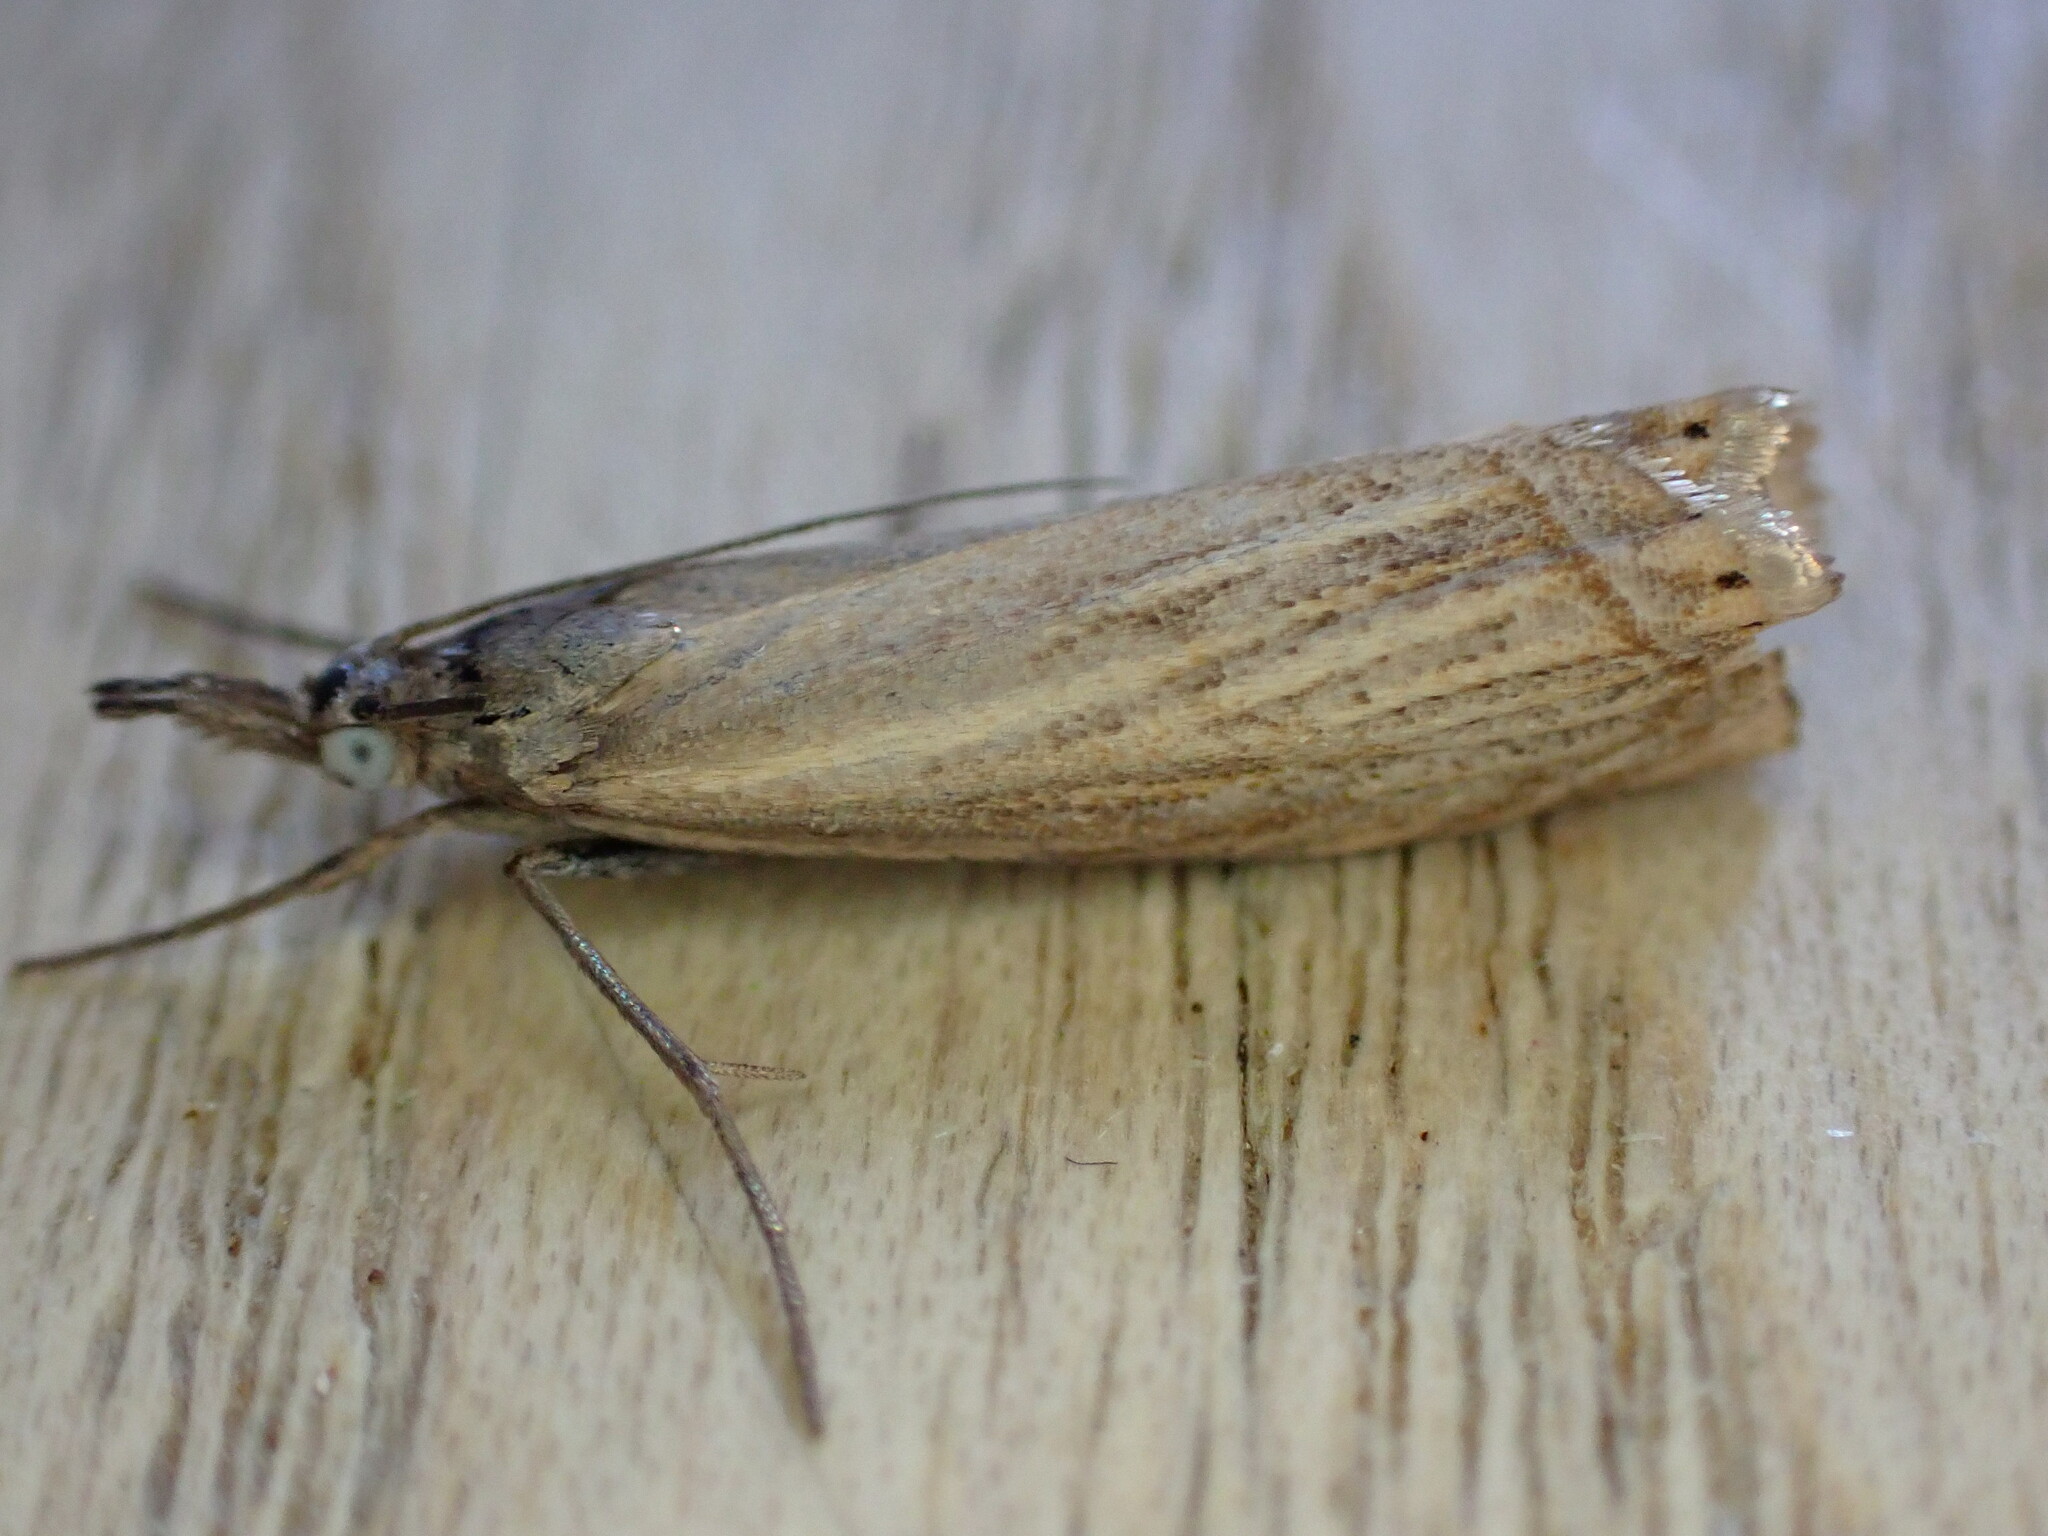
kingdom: Animalia
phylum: Arthropoda
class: Insecta
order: Lepidoptera
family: Crambidae
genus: Chrysoteuchia
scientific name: Chrysoteuchia culmella
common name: Garden grass-veneer
